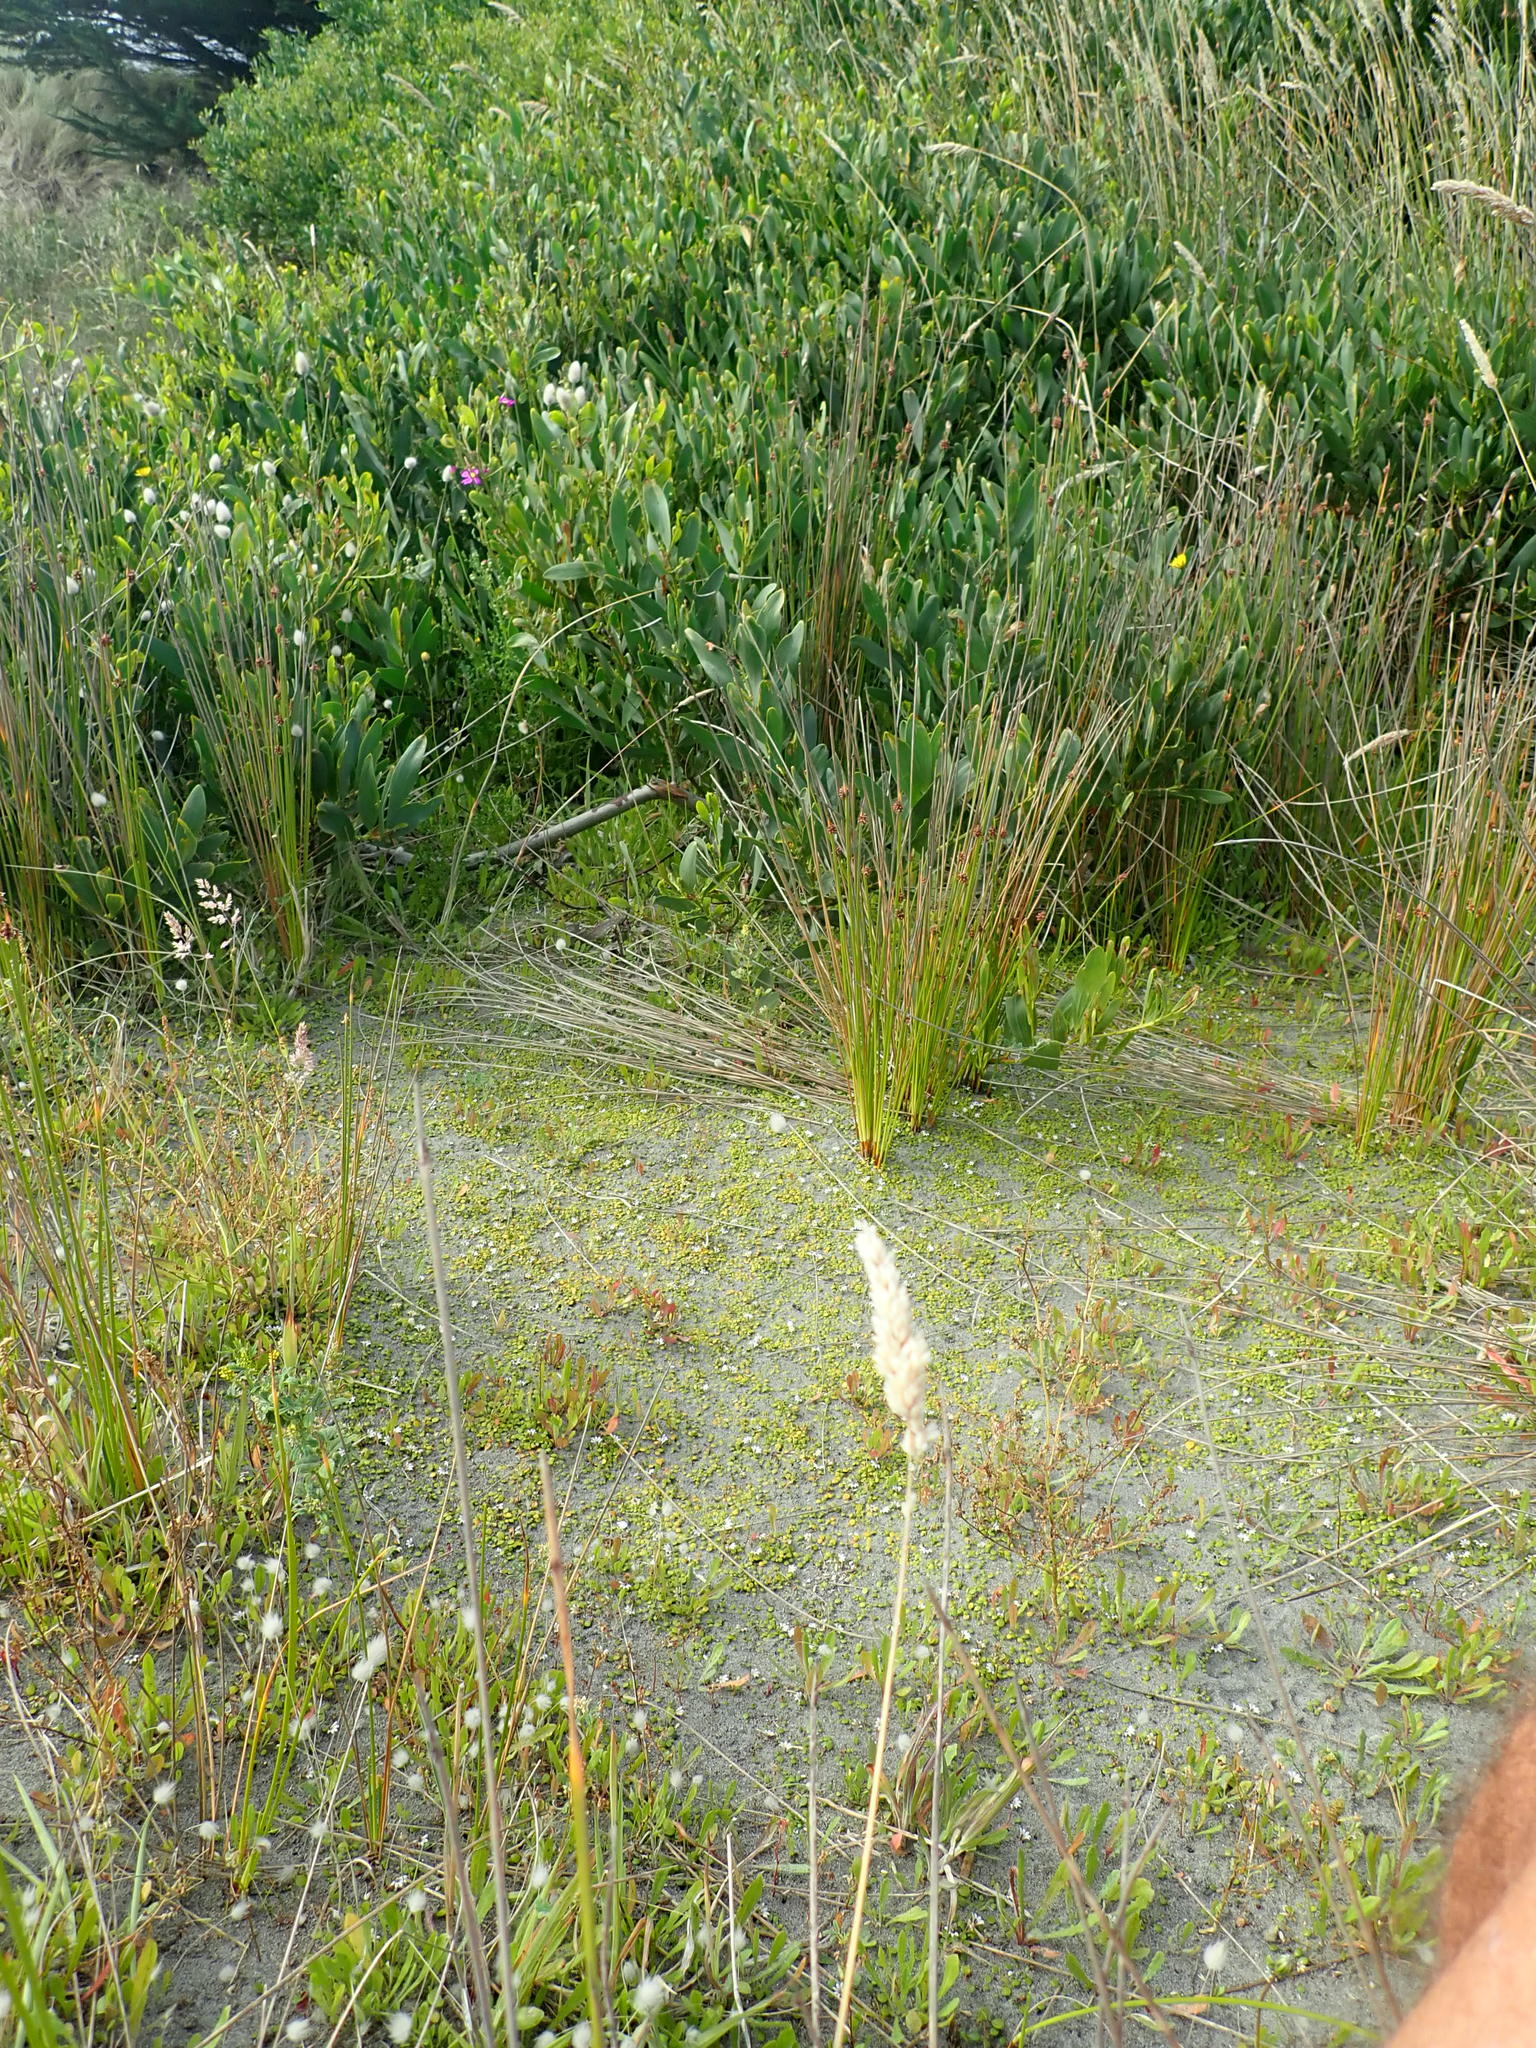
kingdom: Plantae
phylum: Tracheophyta
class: Magnoliopsida
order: Asterales
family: Goodeniaceae
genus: Goodenia
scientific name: Goodenia heenanii
